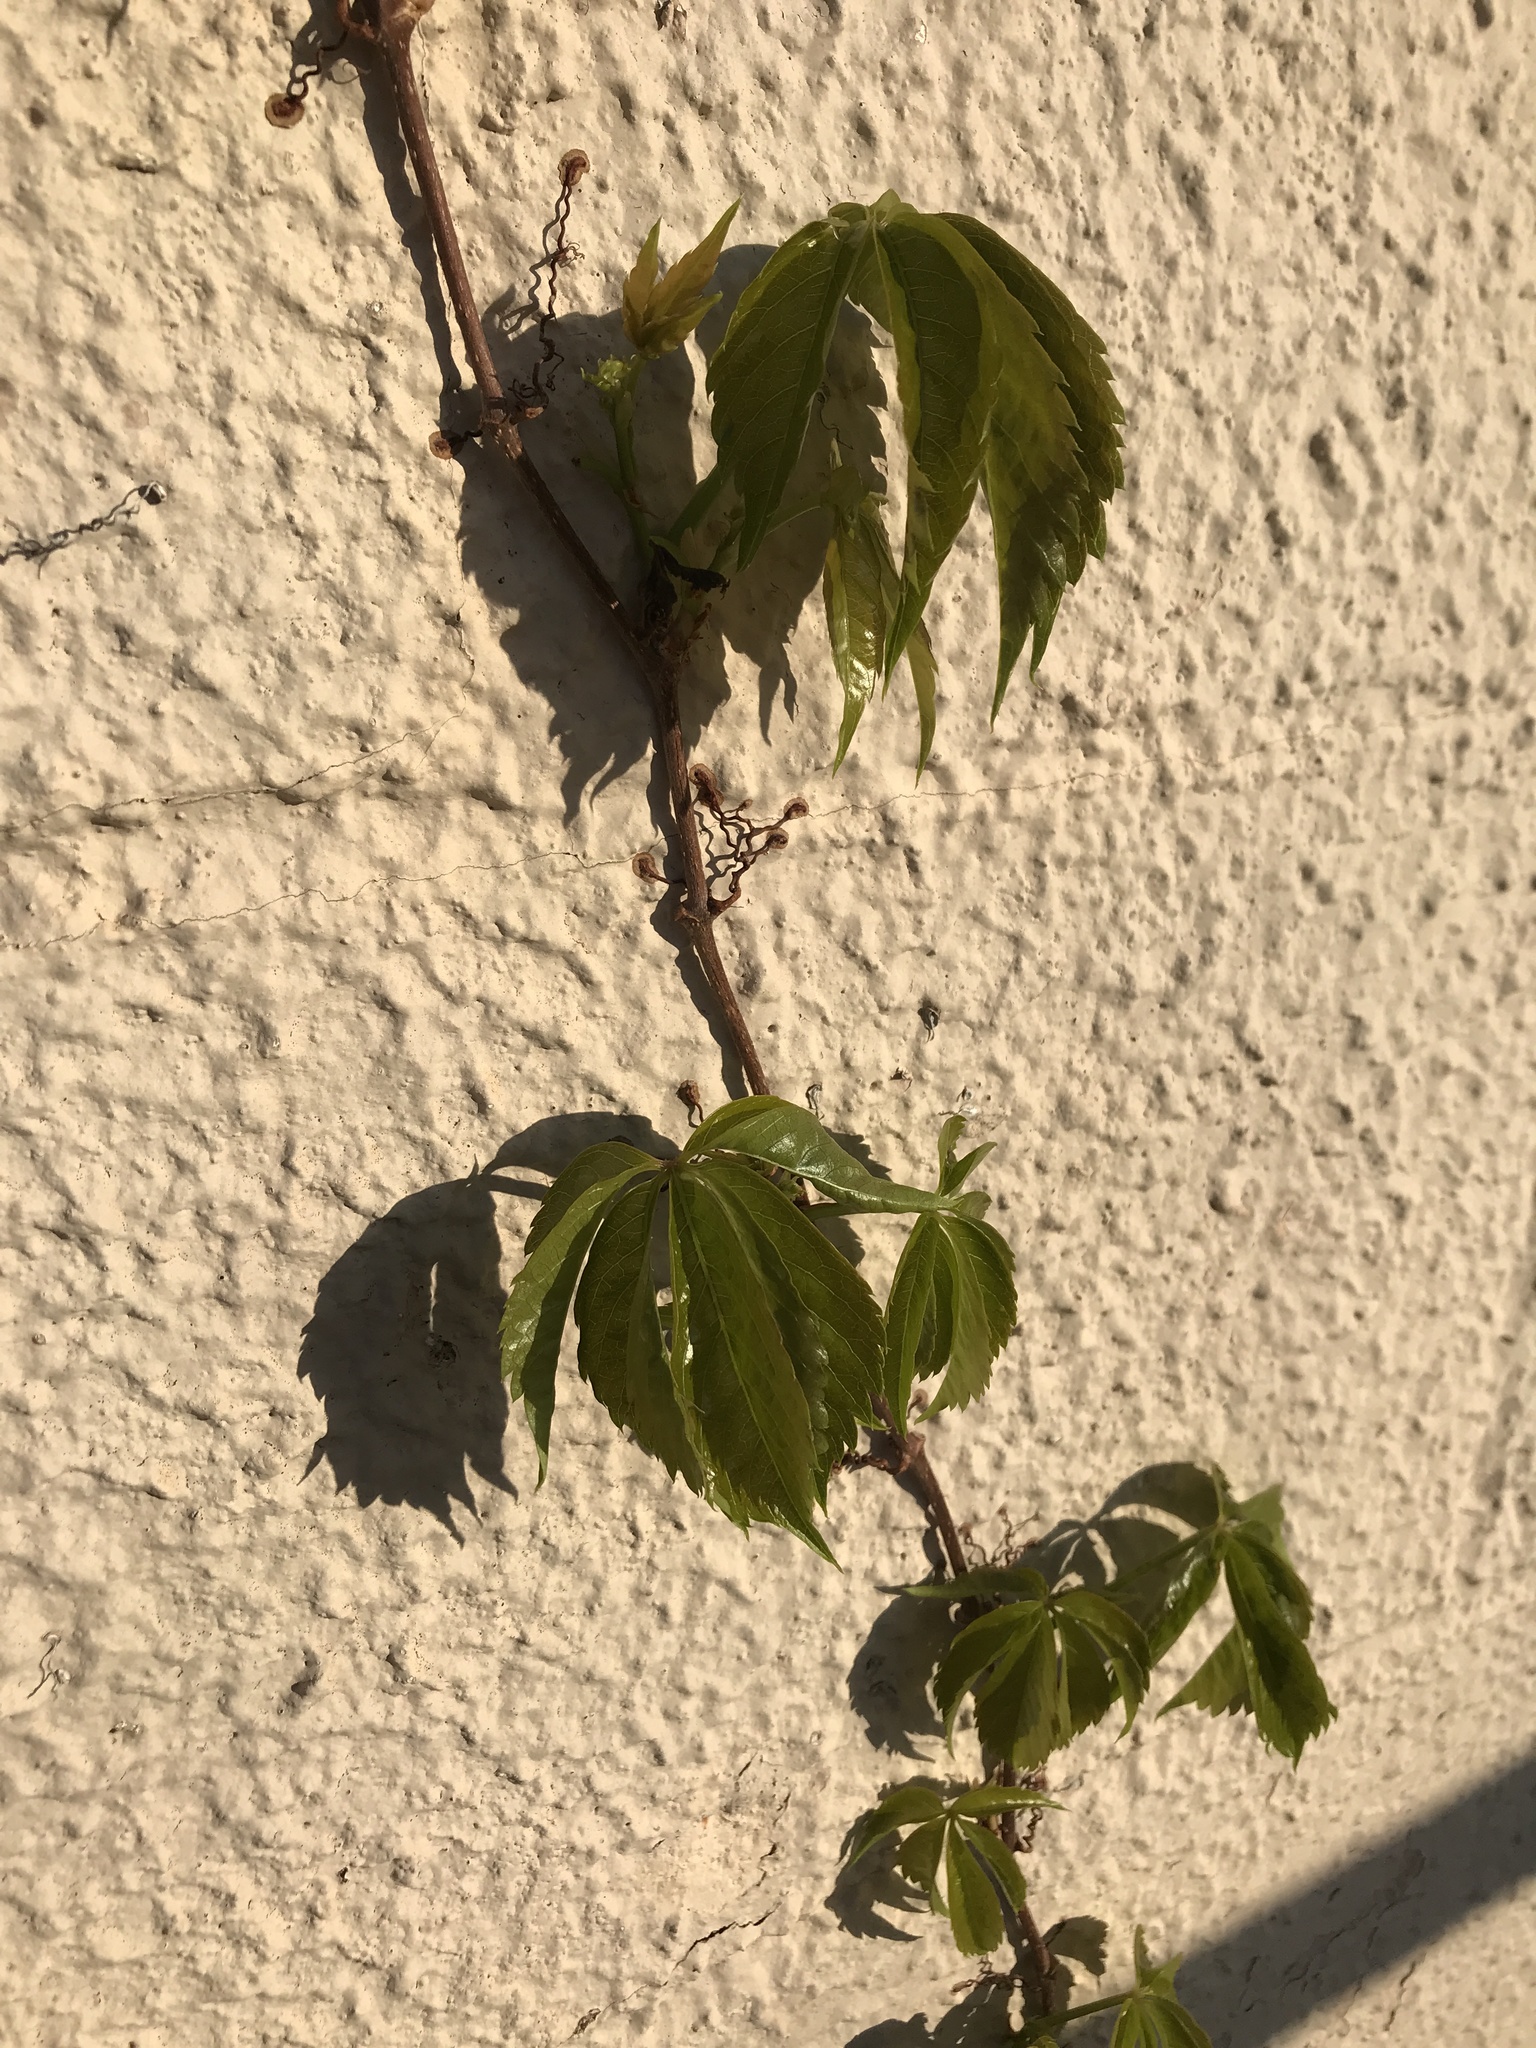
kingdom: Plantae
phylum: Tracheophyta
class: Magnoliopsida
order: Vitales
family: Vitaceae
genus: Parthenocissus
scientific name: Parthenocissus quinquefolia
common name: Virginia-creeper
